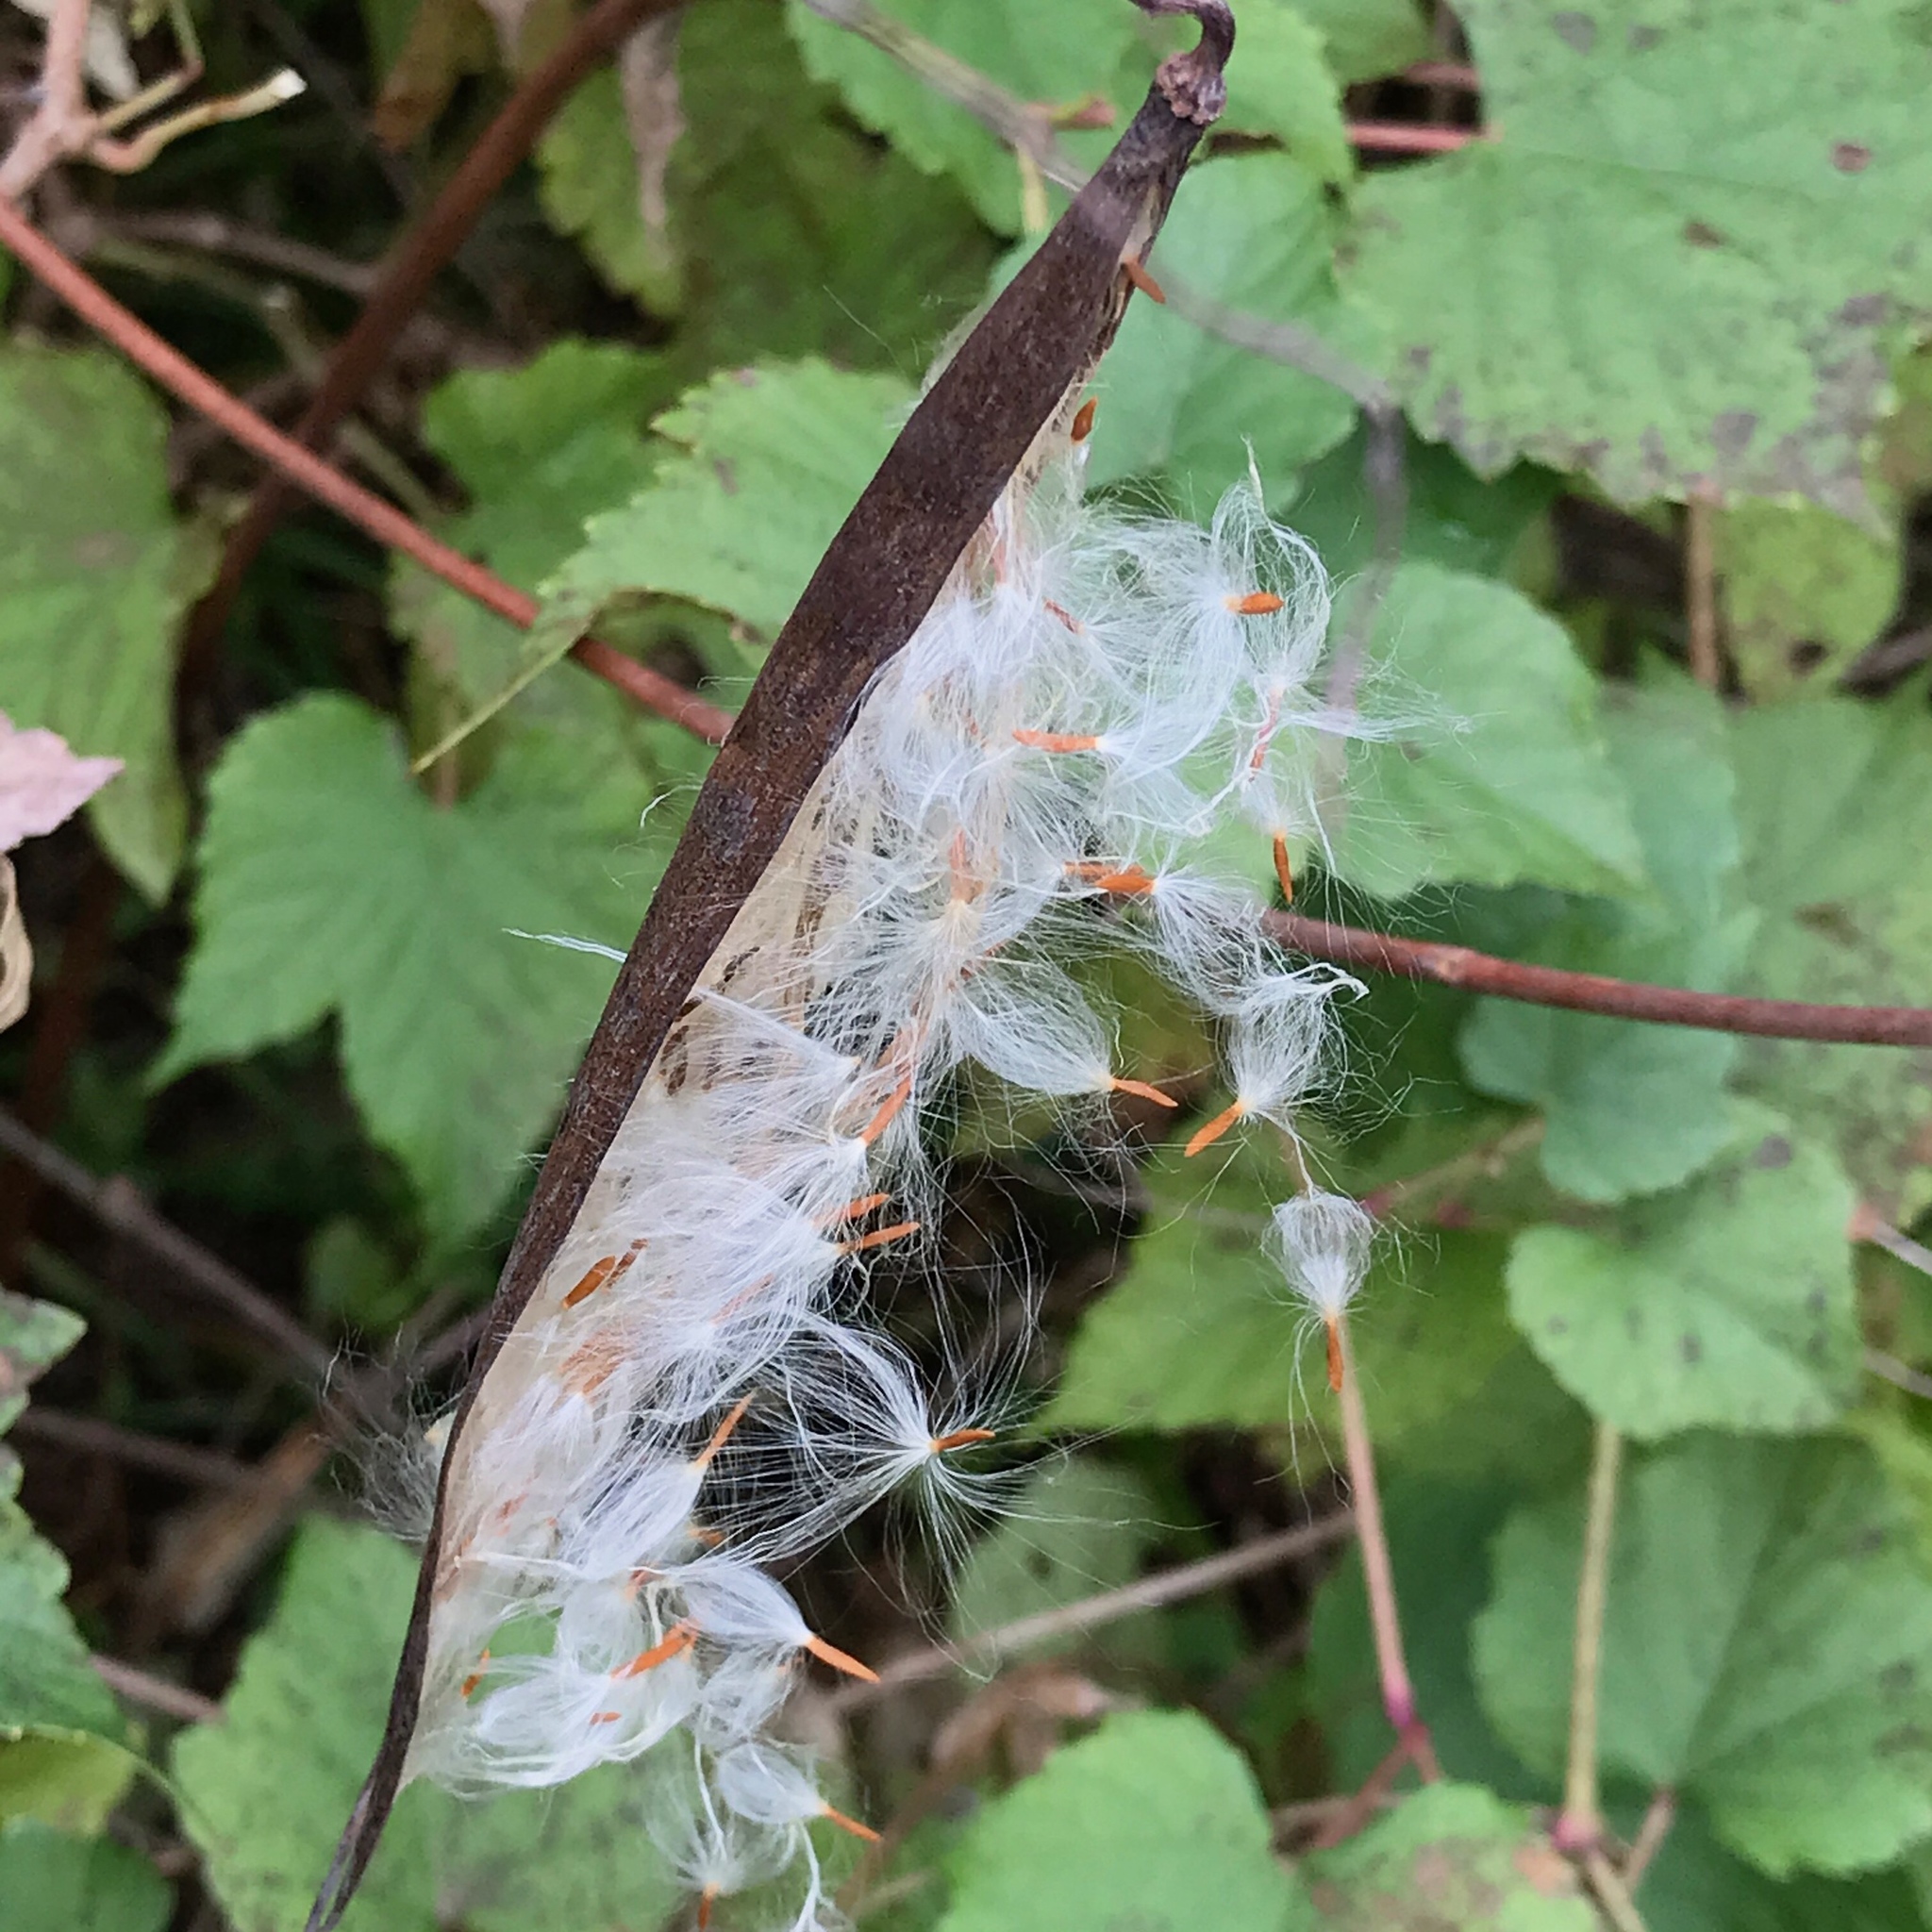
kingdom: Plantae
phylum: Tracheophyta
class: Magnoliopsida
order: Gentianales
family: Apocynaceae
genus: Apocynum
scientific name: Apocynum cannabinum
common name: Hemp dogbane
